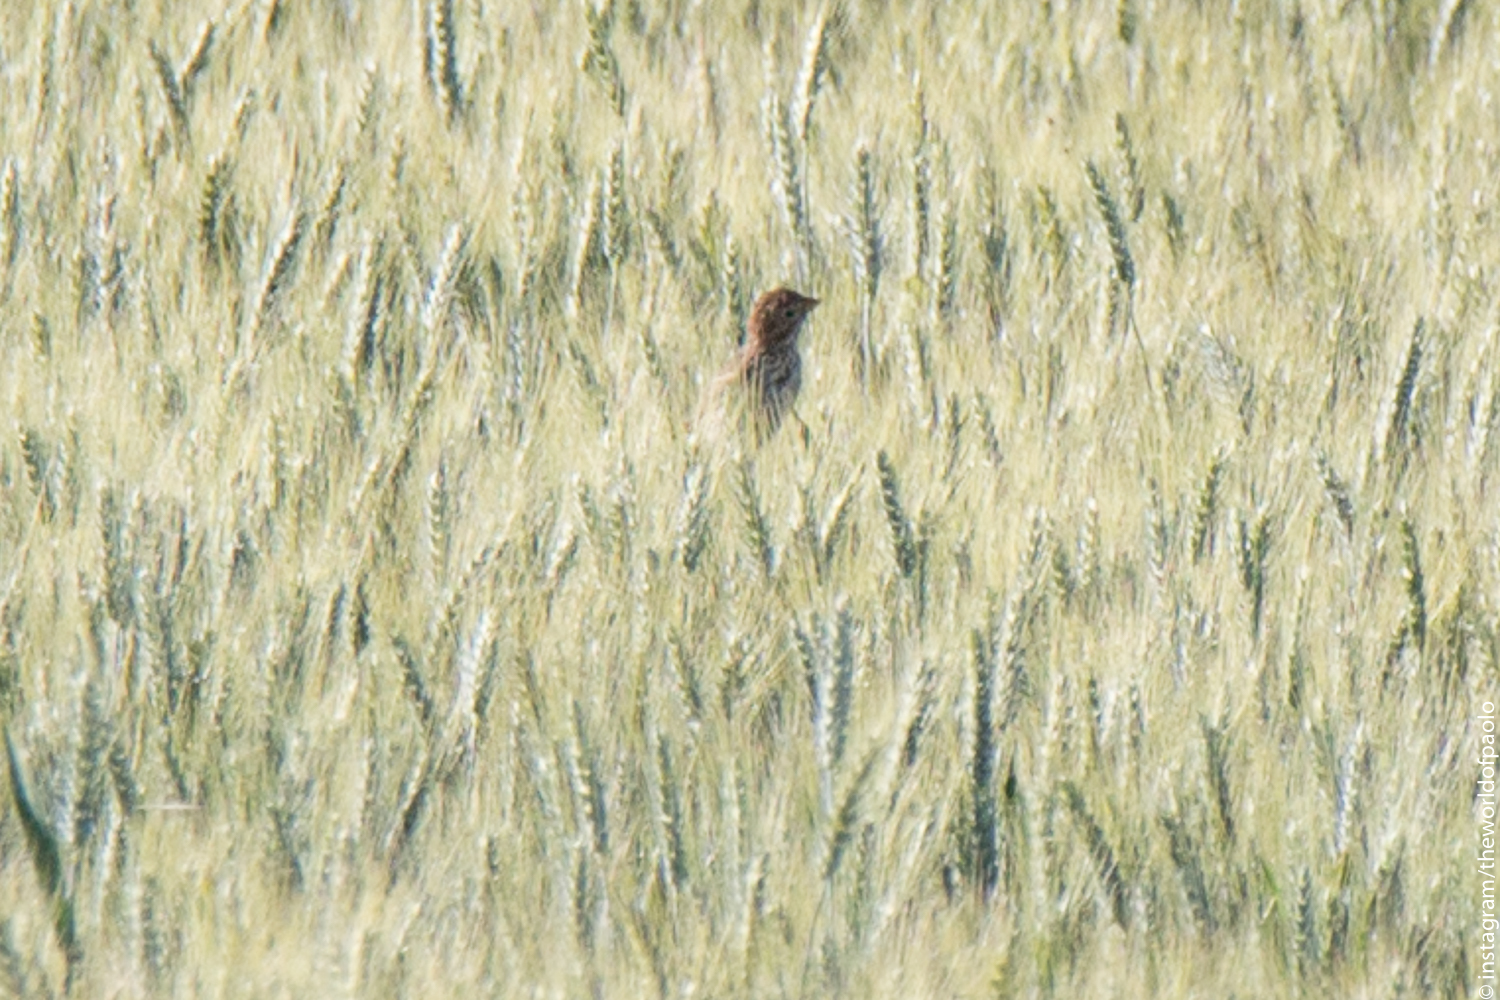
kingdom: Animalia
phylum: Chordata
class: Aves
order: Passeriformes
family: Emberizidae
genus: Emberiza
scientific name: Emberiza calandra
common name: Corn bunting
